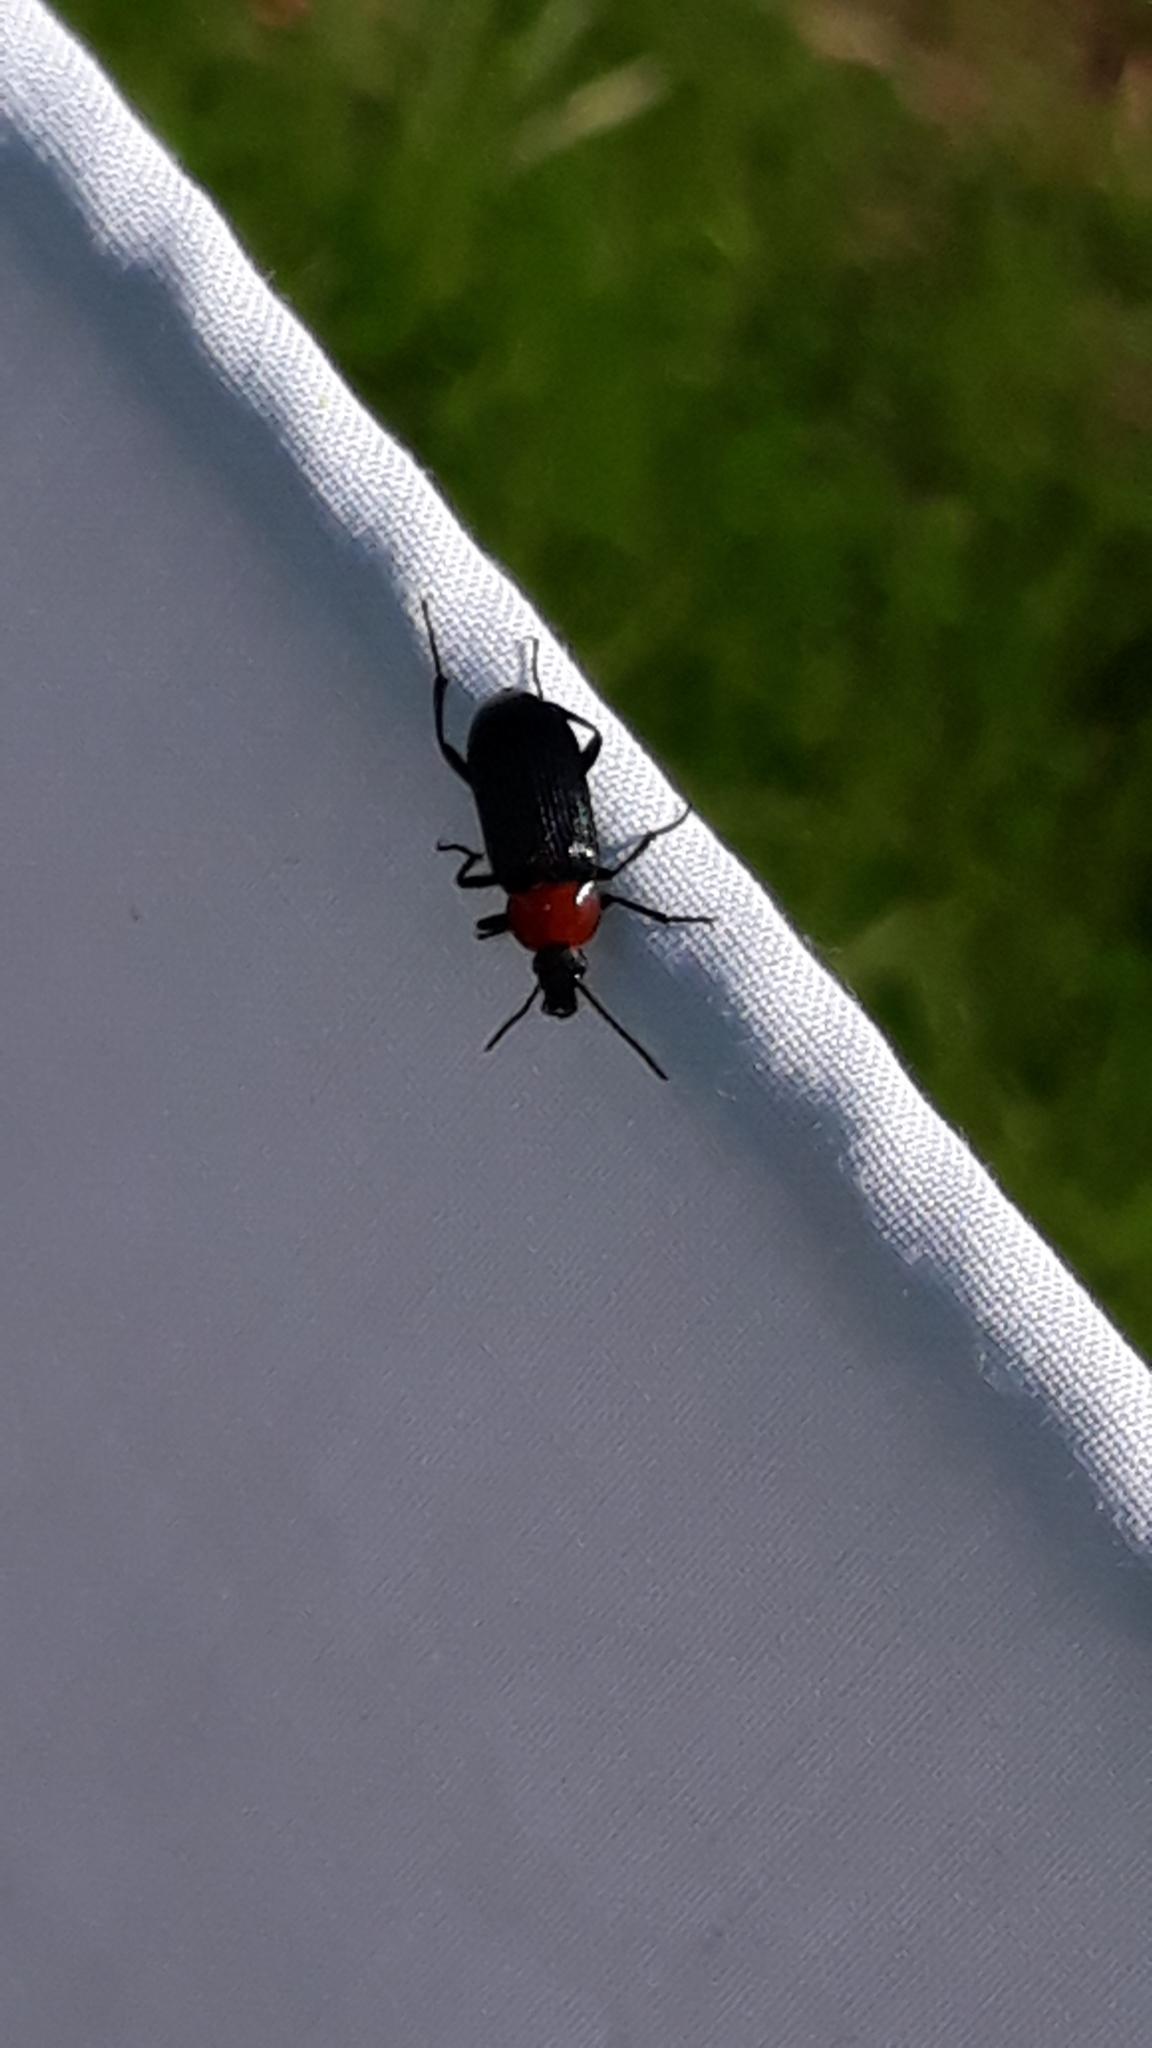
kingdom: Animalia
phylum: Arthropoda
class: Insecta
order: Coleoptera
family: Tenebrionidae
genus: Heliotaurus
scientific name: Heliotaurus ruficollis
